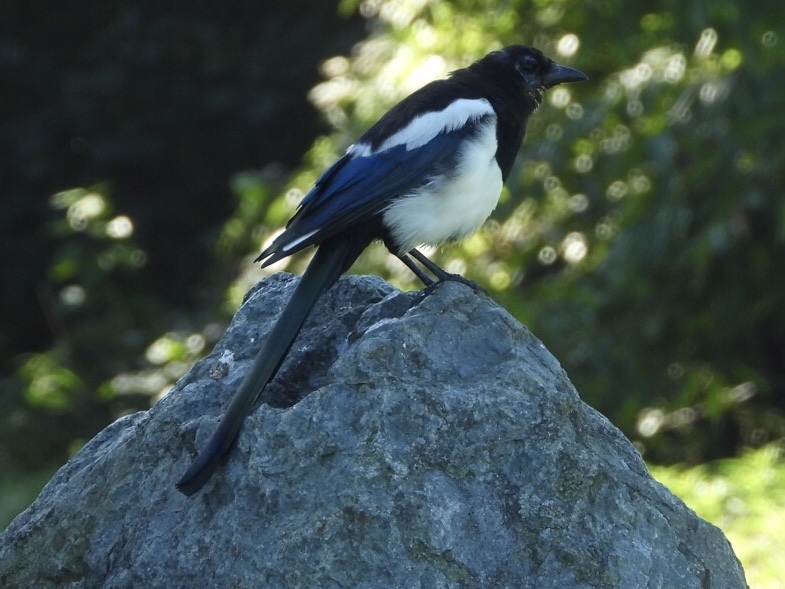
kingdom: Animalia
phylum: Chordata
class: Aves
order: Passeriformes
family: Corvidae
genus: Pica
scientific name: Pica serica
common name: Oriental magpie
